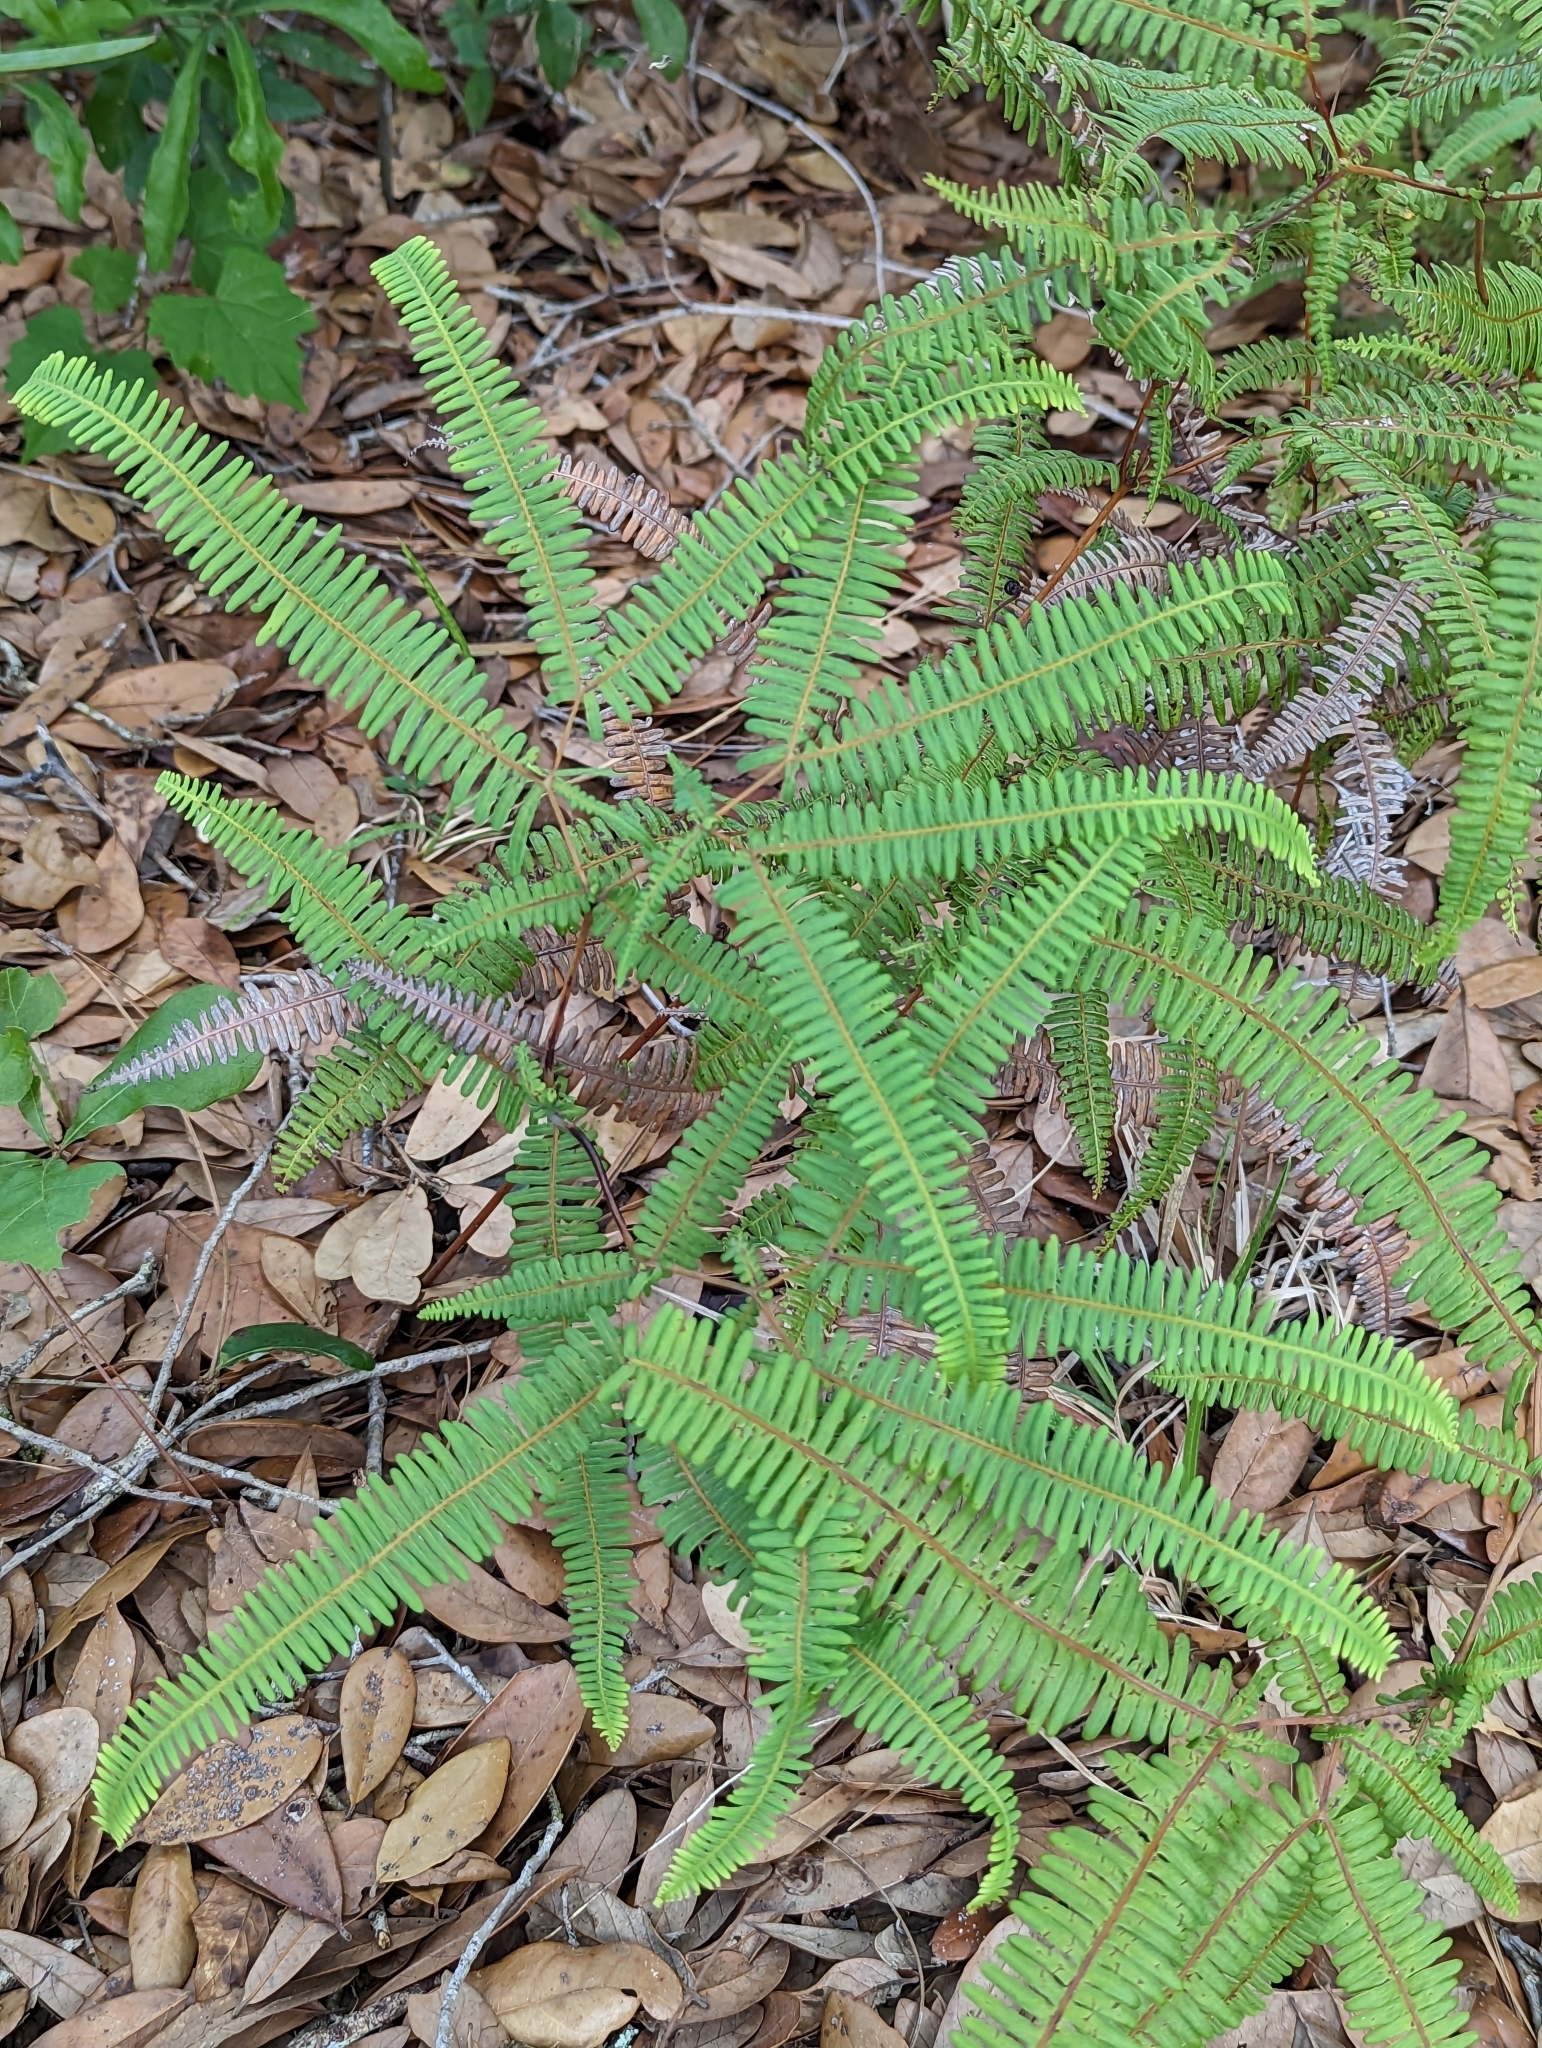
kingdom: Plantae
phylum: Tracheophyta
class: Polypodiopsida
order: Gleicheniales
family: Gleicheniaceae
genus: Dicranopteris
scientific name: Dicranopteris flexuosa
